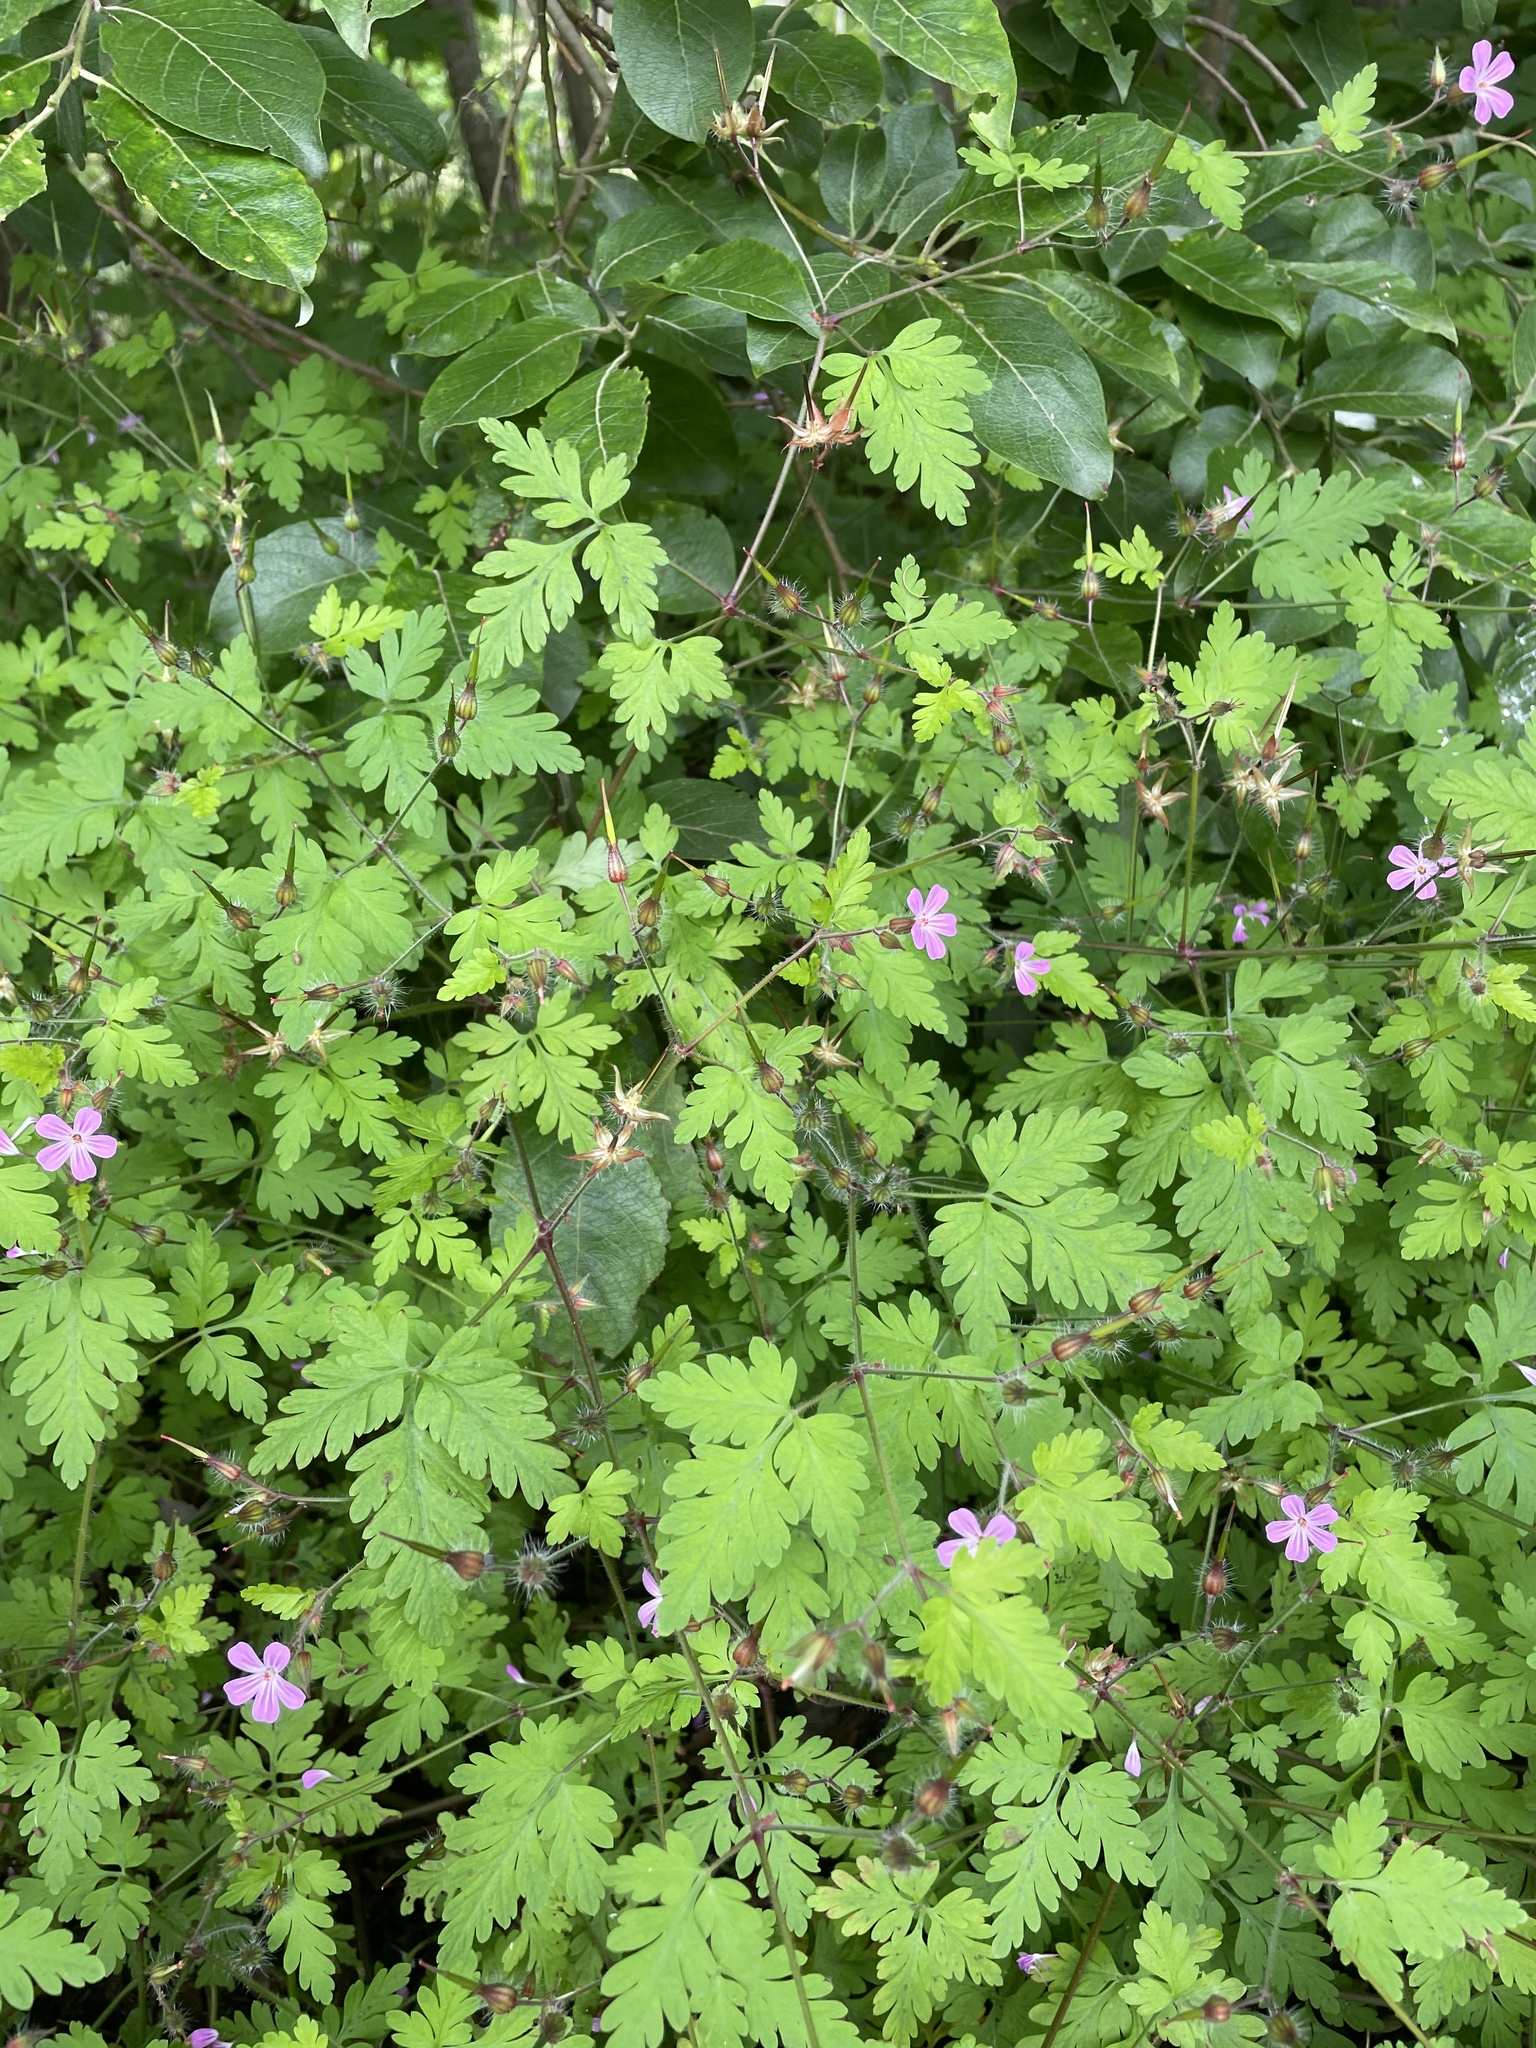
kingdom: Plantae
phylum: Tracheophyta
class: Magnoliopsida
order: Geraniales
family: Geraniaceae
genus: Geranium
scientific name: Geranium robertianum
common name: Herb-robert
